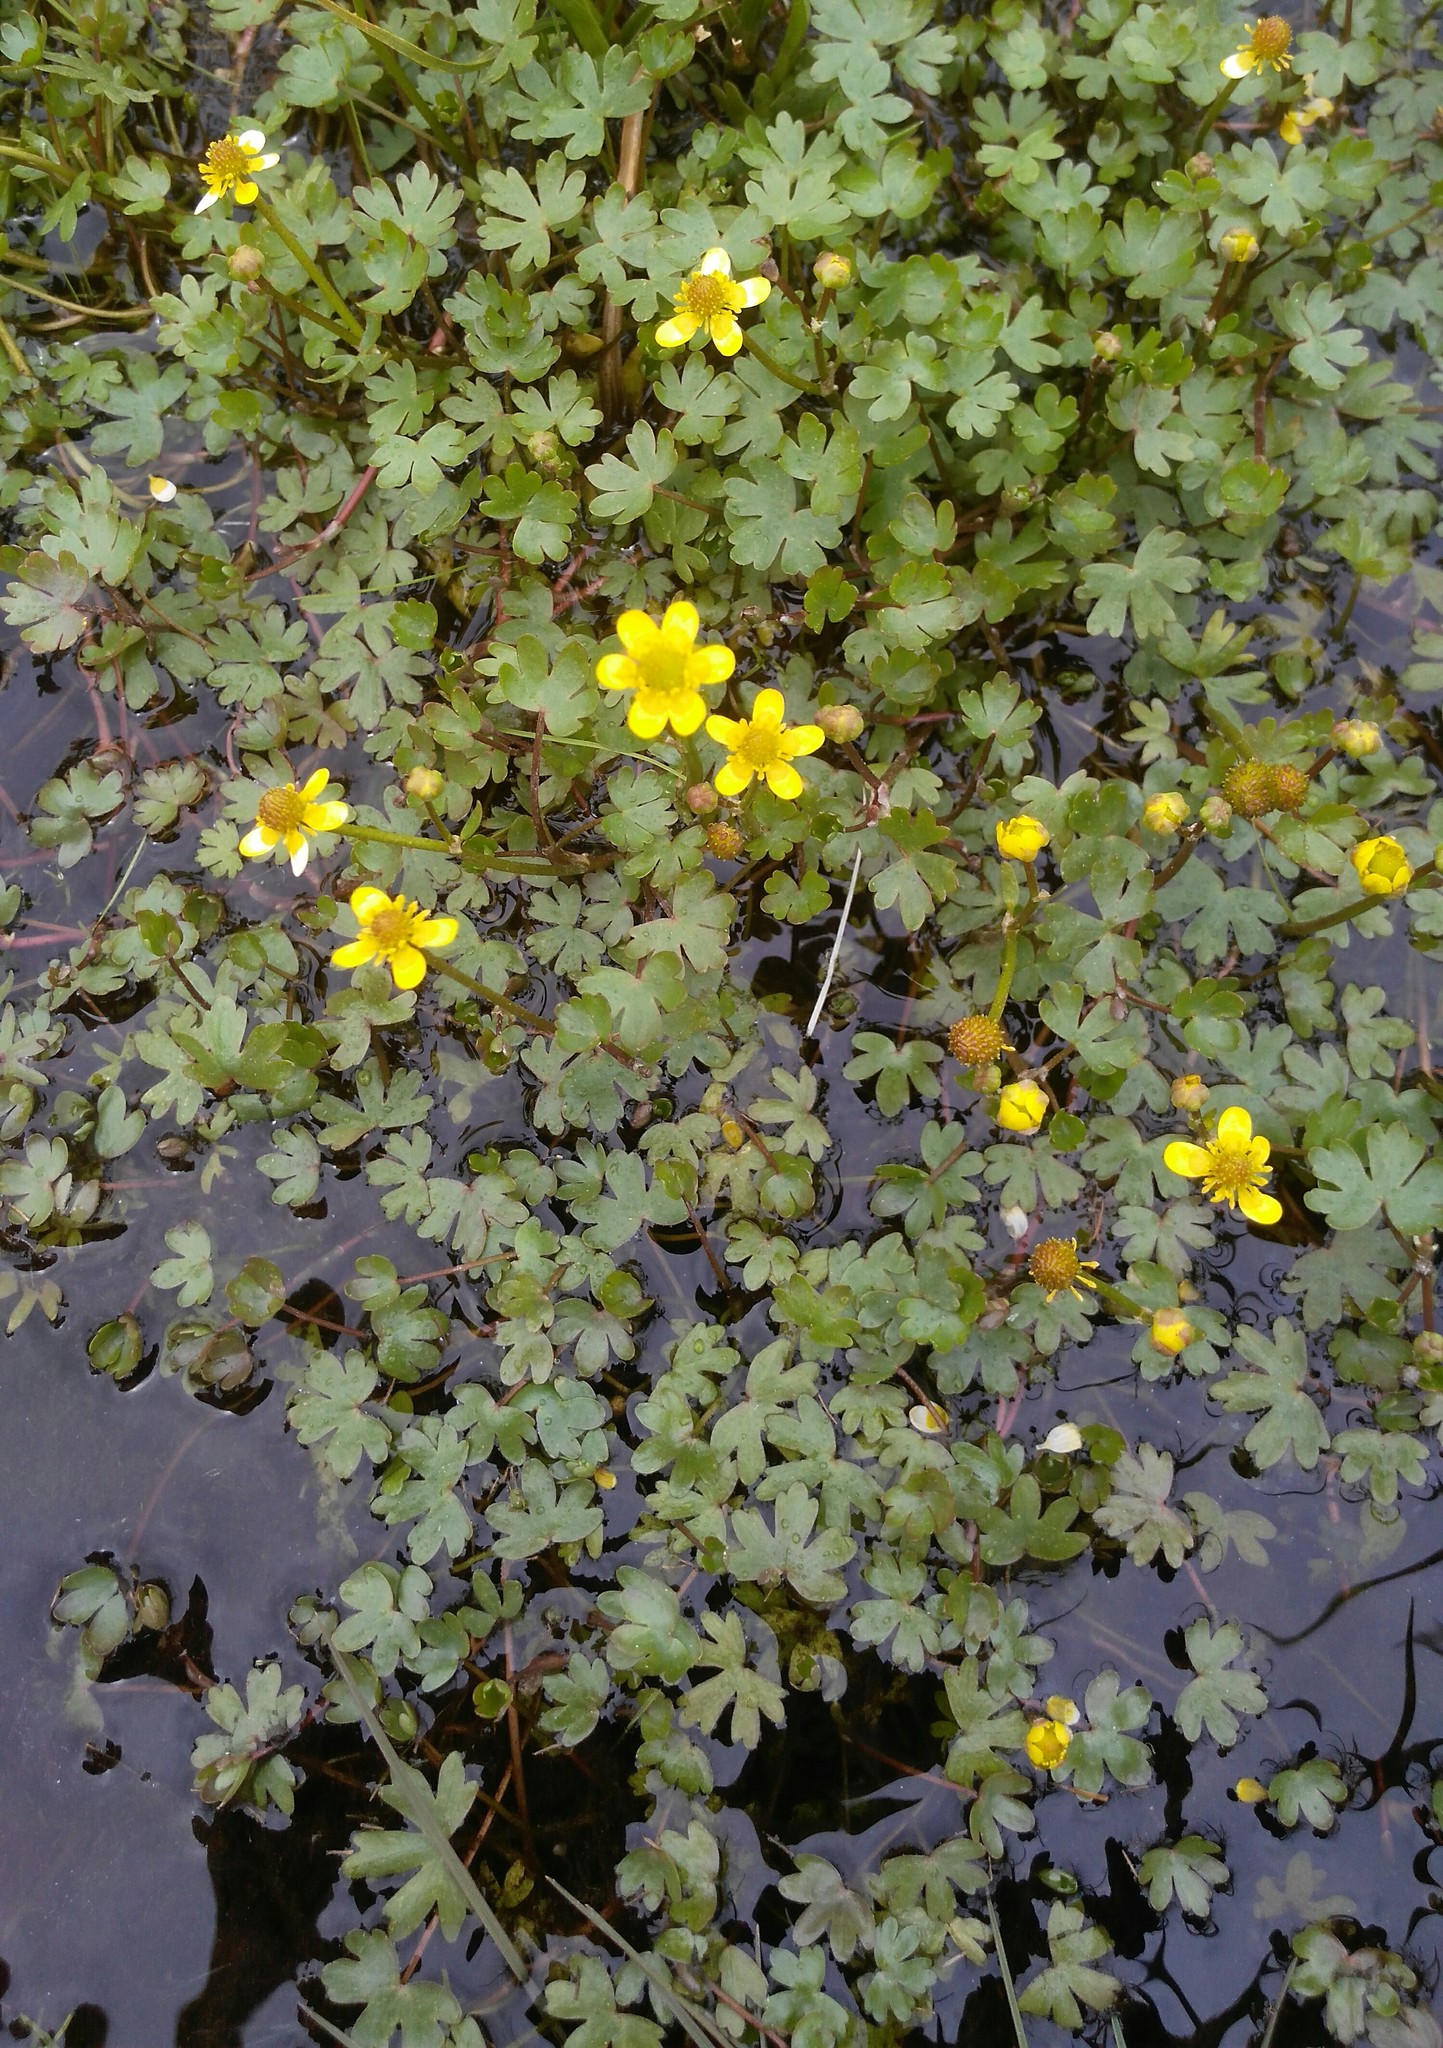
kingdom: Plantae
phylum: Tracheophyta
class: Magnoliopsida
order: Ranunculales
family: Ranunculaceae
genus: Ranunculus
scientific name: Ranunculus gmelinii
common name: Gmelin's buttercup
